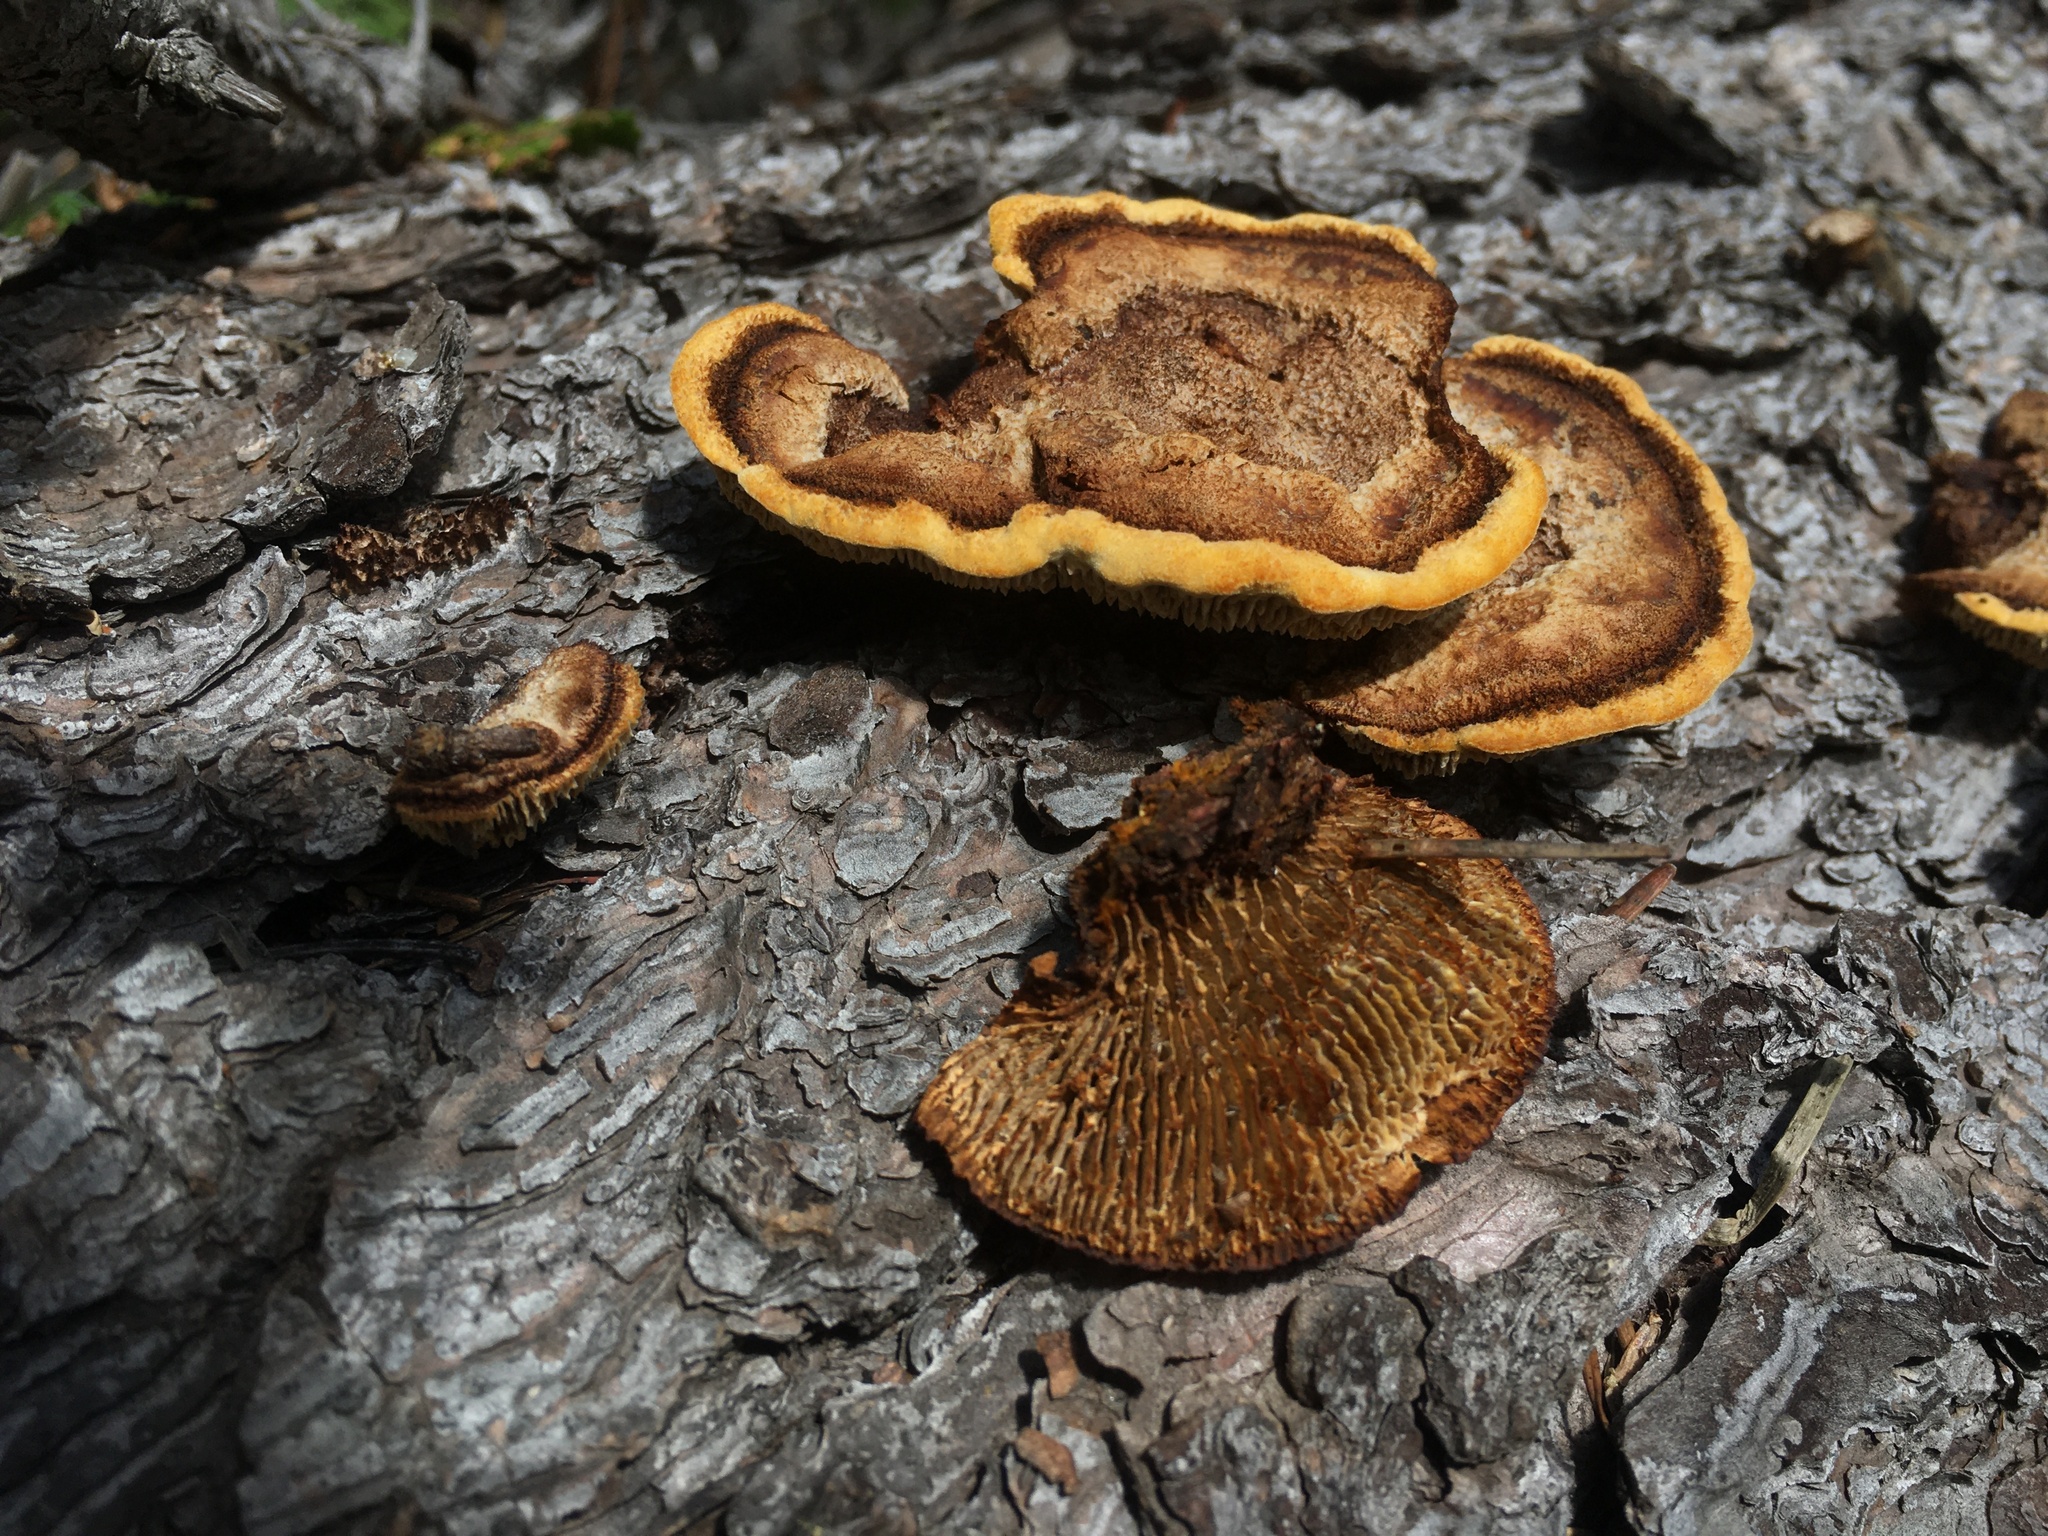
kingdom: Fungi
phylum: Basidiomycota
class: Agaricomycetes
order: Gloeophyllales
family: Gloeophyllaceae
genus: Gloeophyllum
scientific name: Gloeophyllum sepiarium
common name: Conifer mazegill
